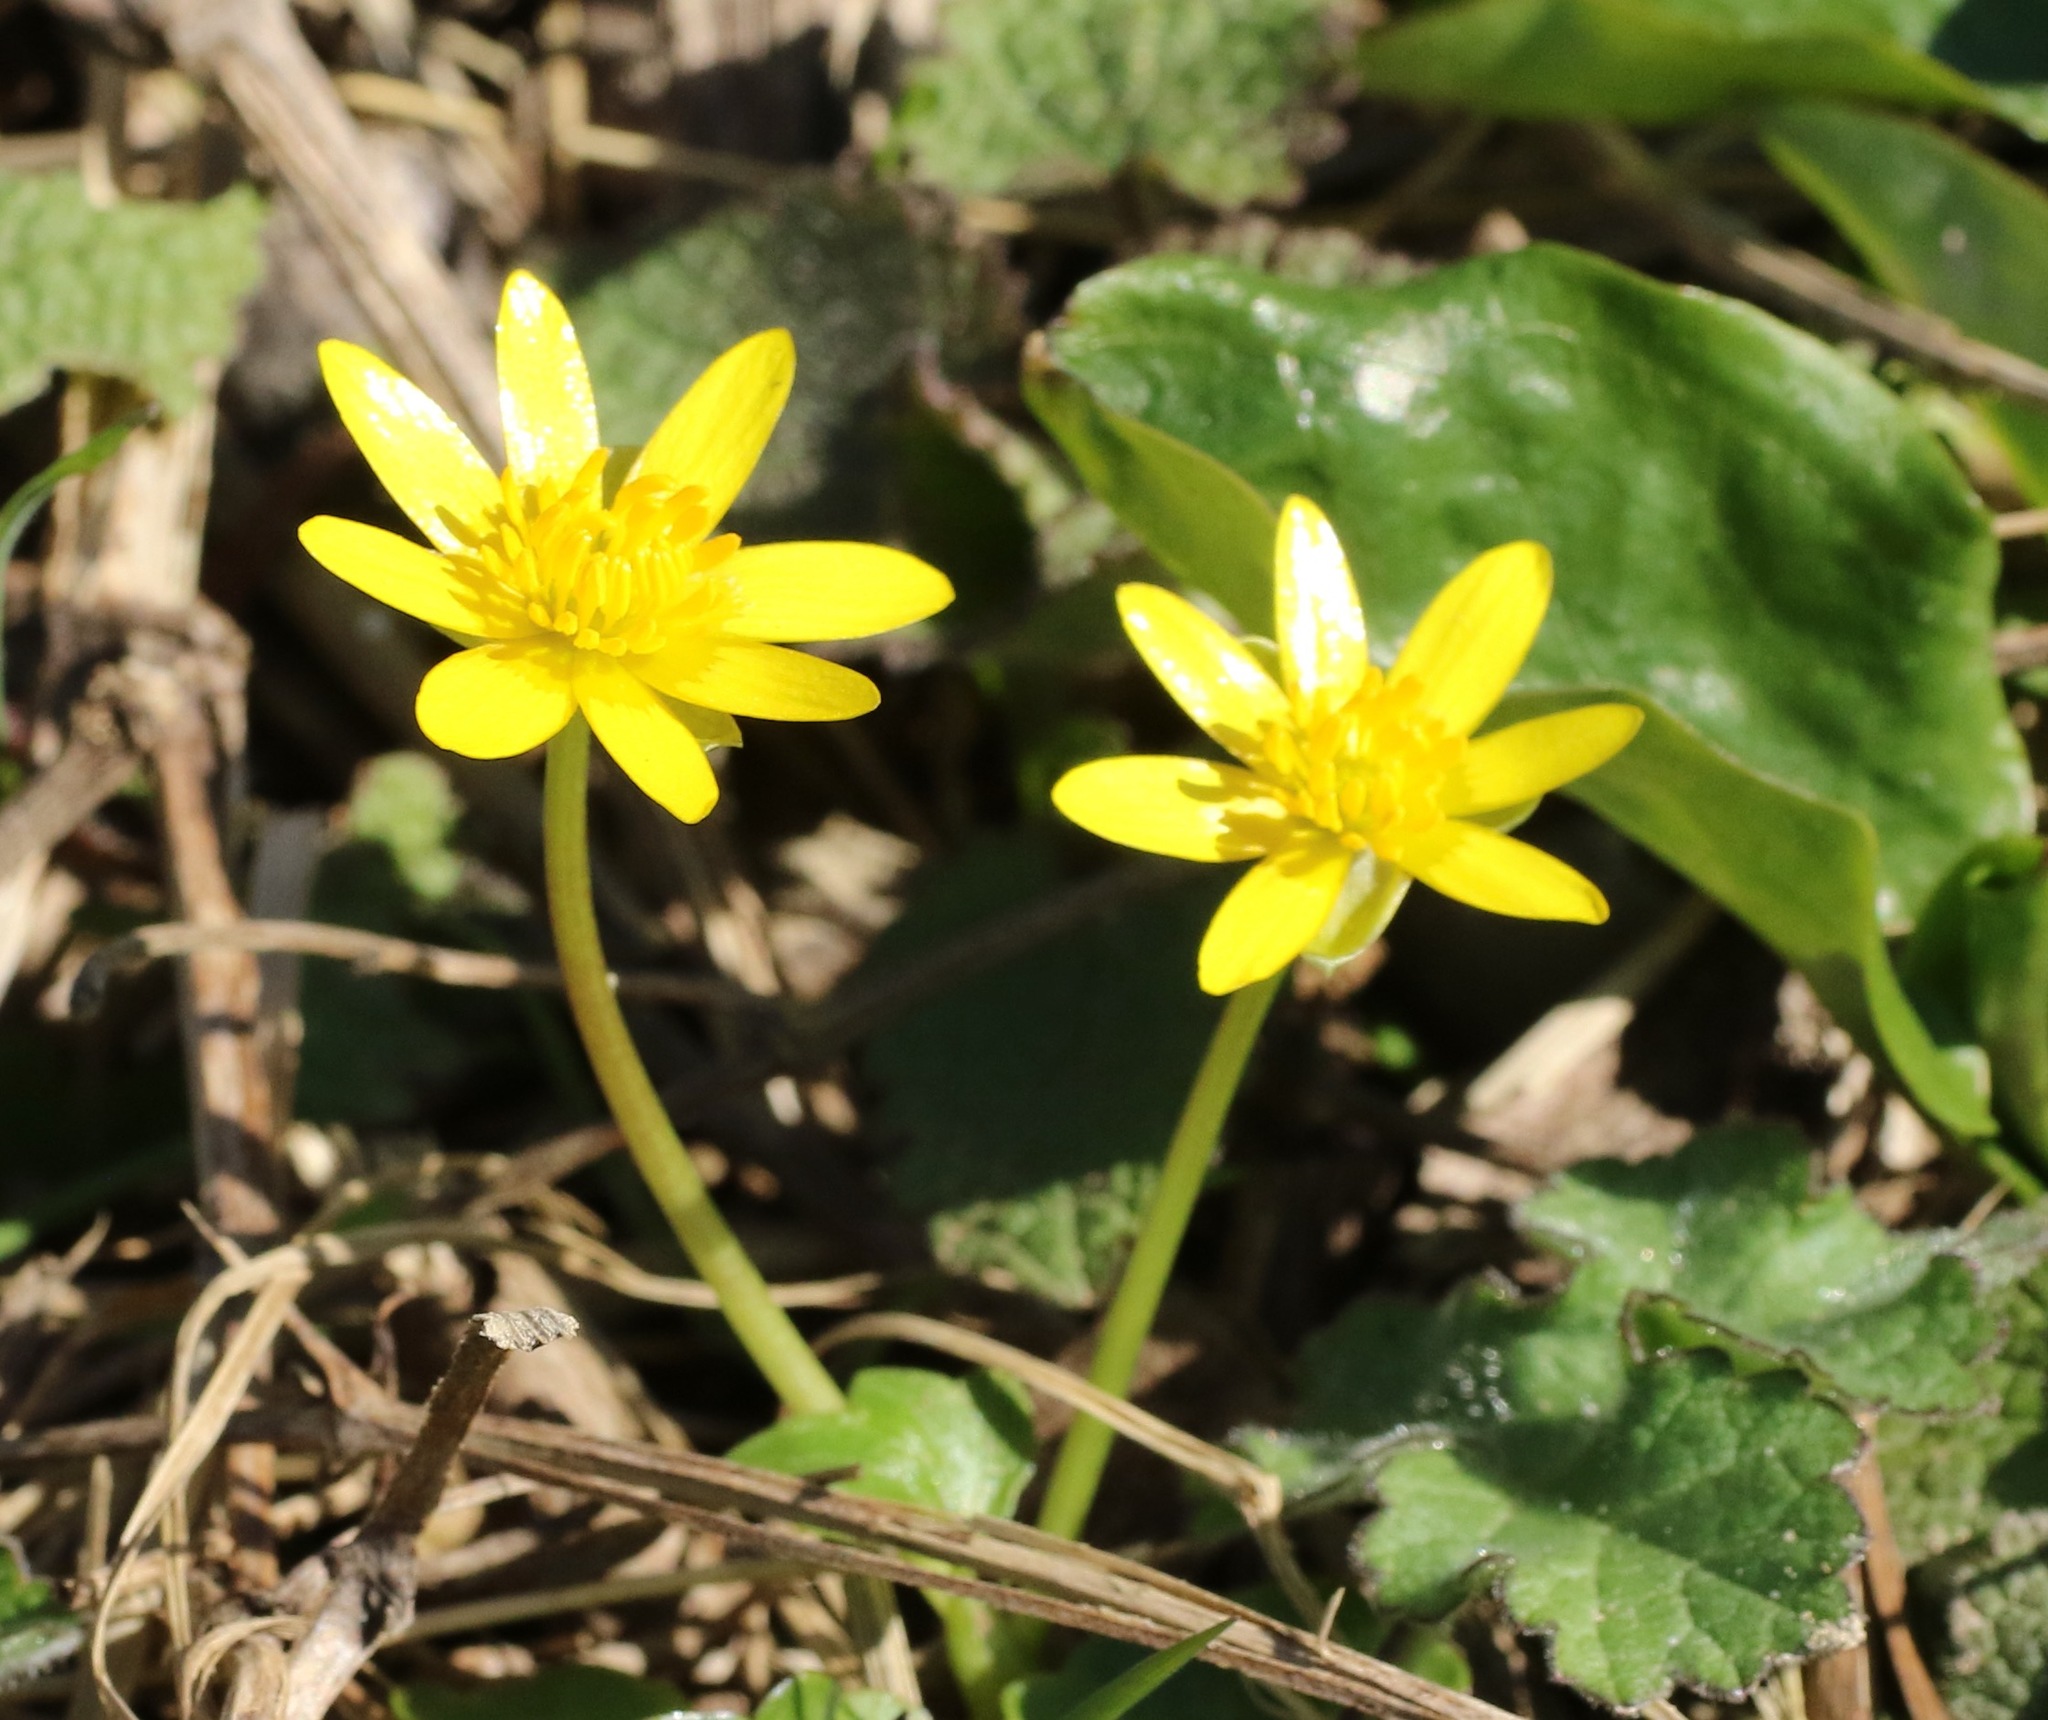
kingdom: Plantae
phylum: Tracheophyta
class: Magnoliopsida
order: Ranunculales
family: Ranunculaceae
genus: Ficaria
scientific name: Ficaria verna
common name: Lesser celandine
